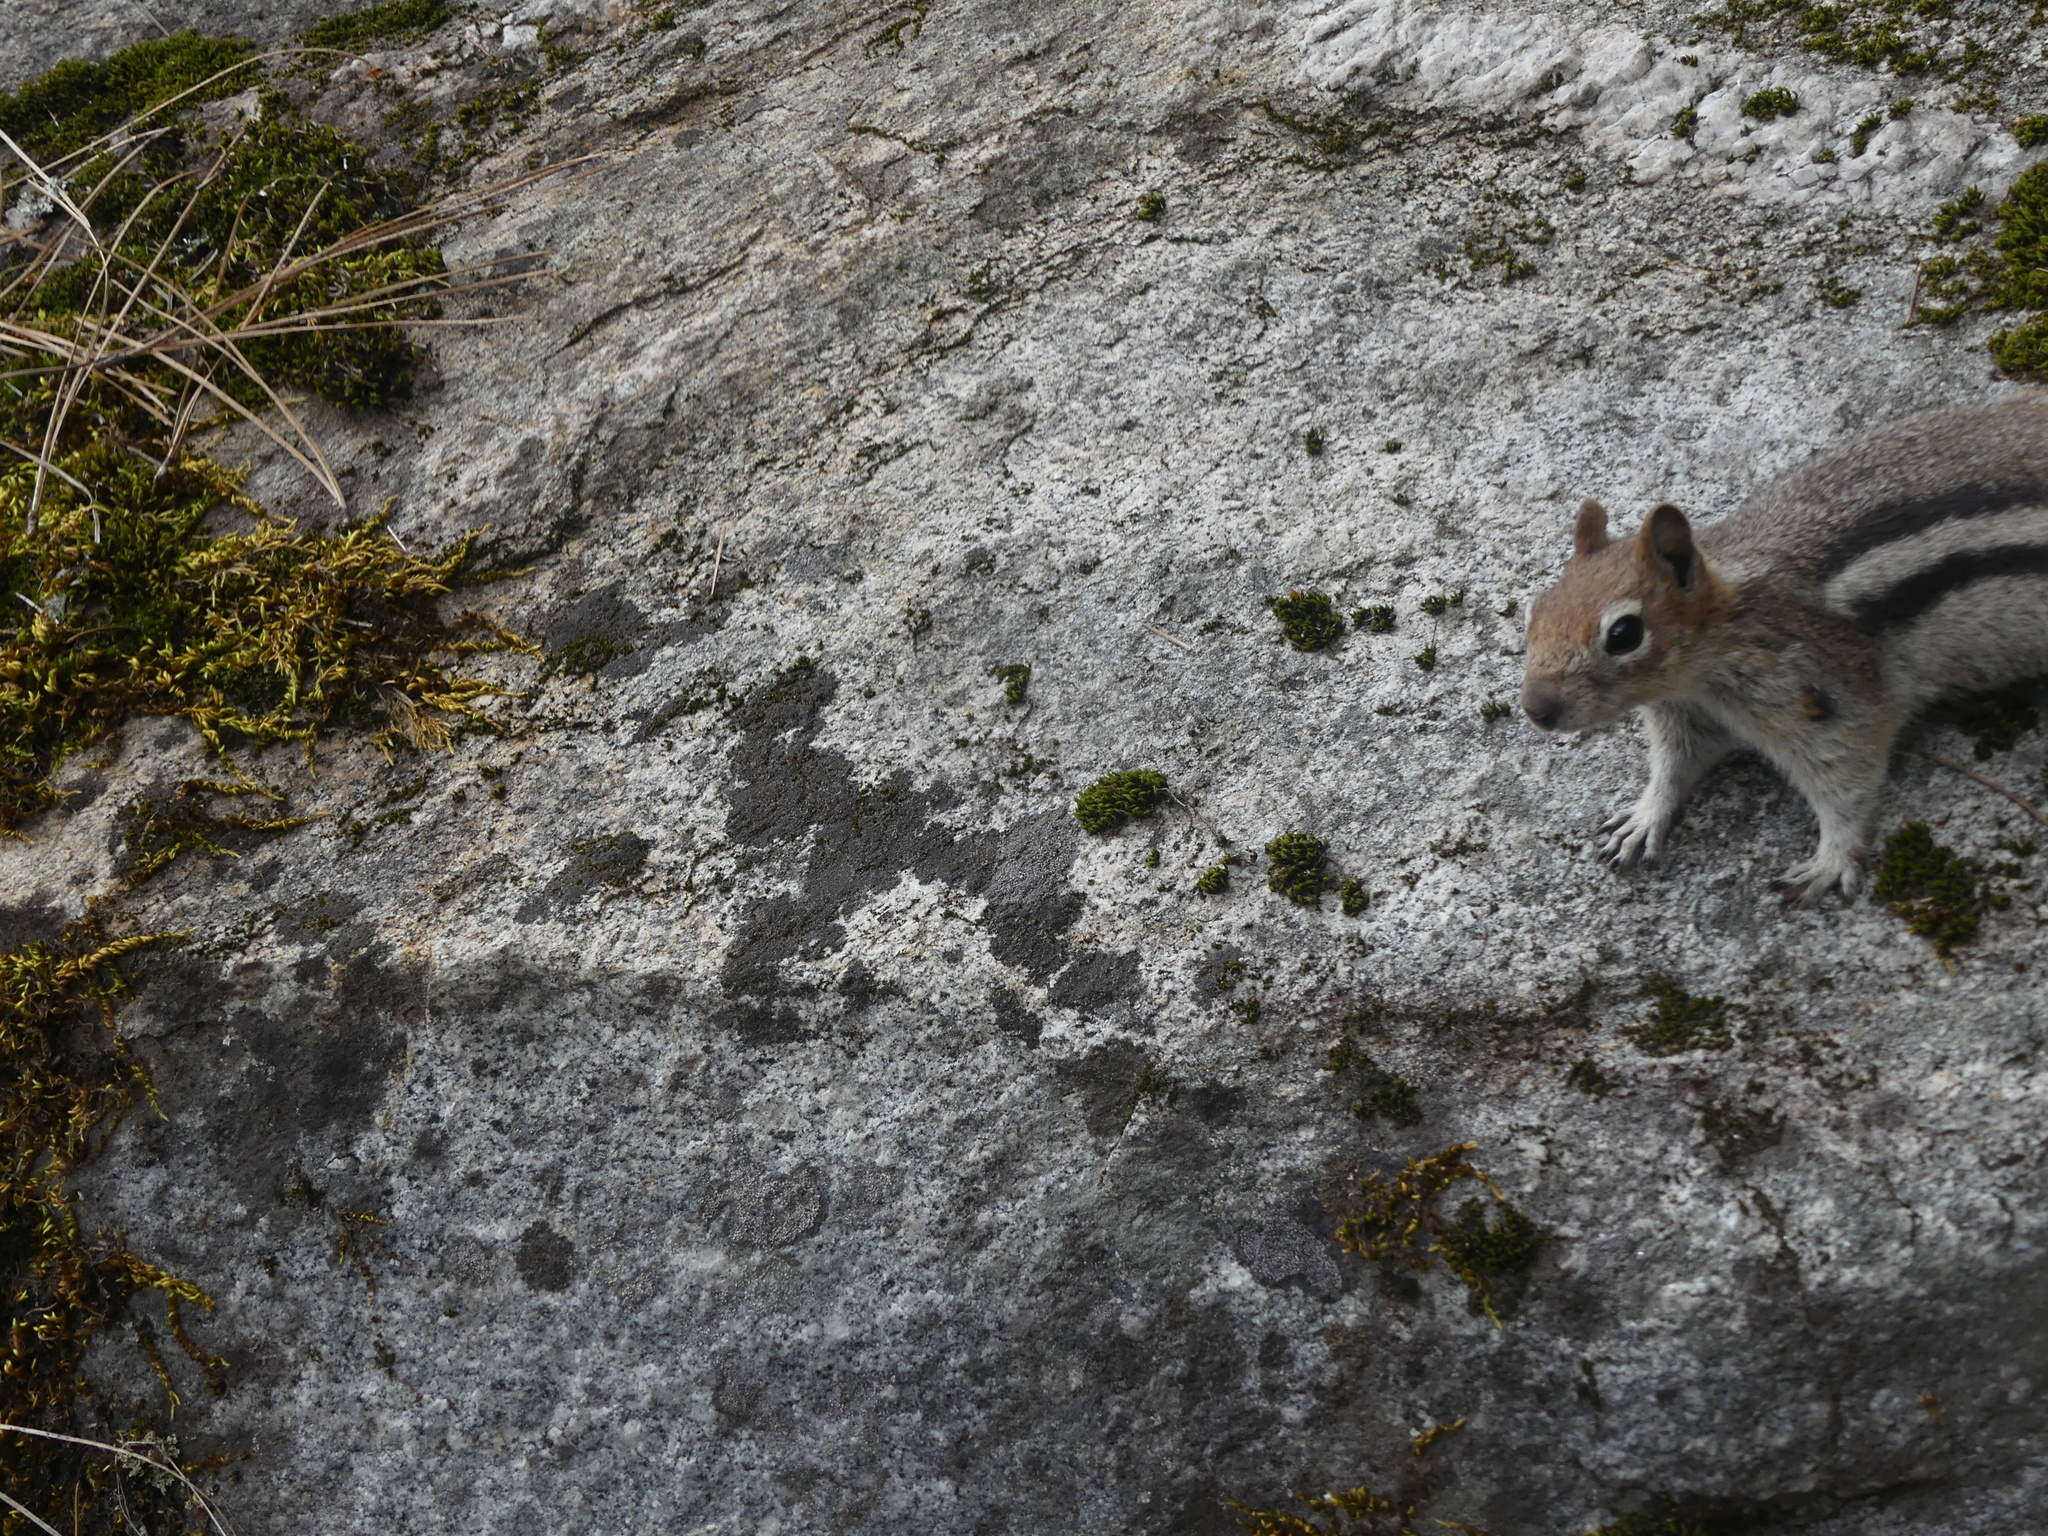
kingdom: Animalia
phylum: Chordata
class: Mammalia
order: Rodentia
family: Sciuridae
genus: Callospermophilus
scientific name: Callospermophilus lateralis
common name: Golden-mantled ground squirrel
